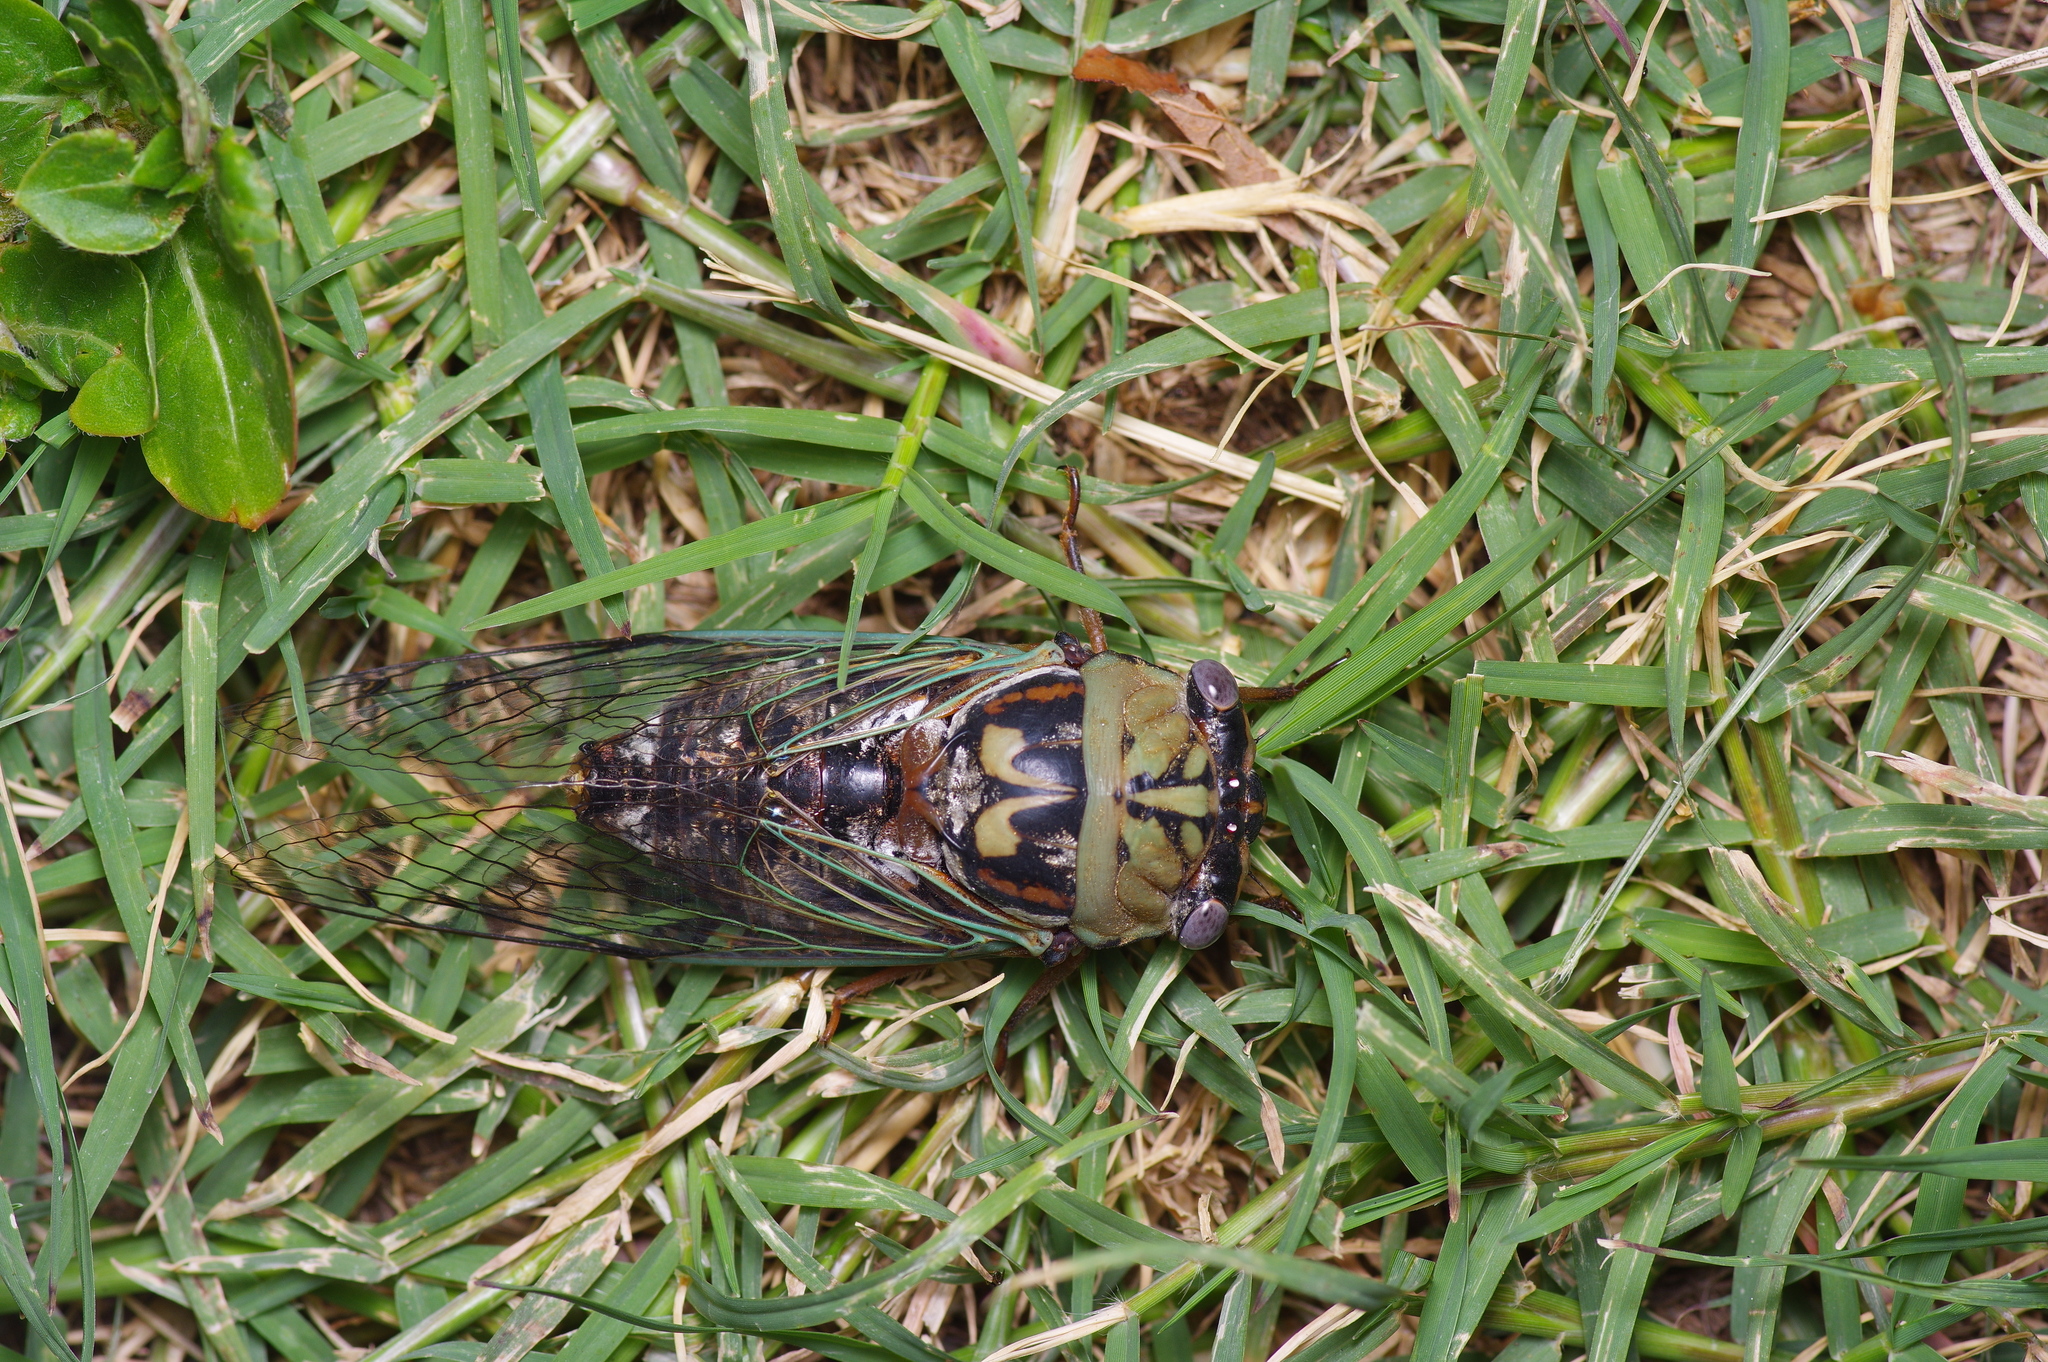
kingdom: Animalia
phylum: Arthropoda
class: Insecta
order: Hemiptera
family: Cicadidae
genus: Megatibicen
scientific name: Megatibicen resh
